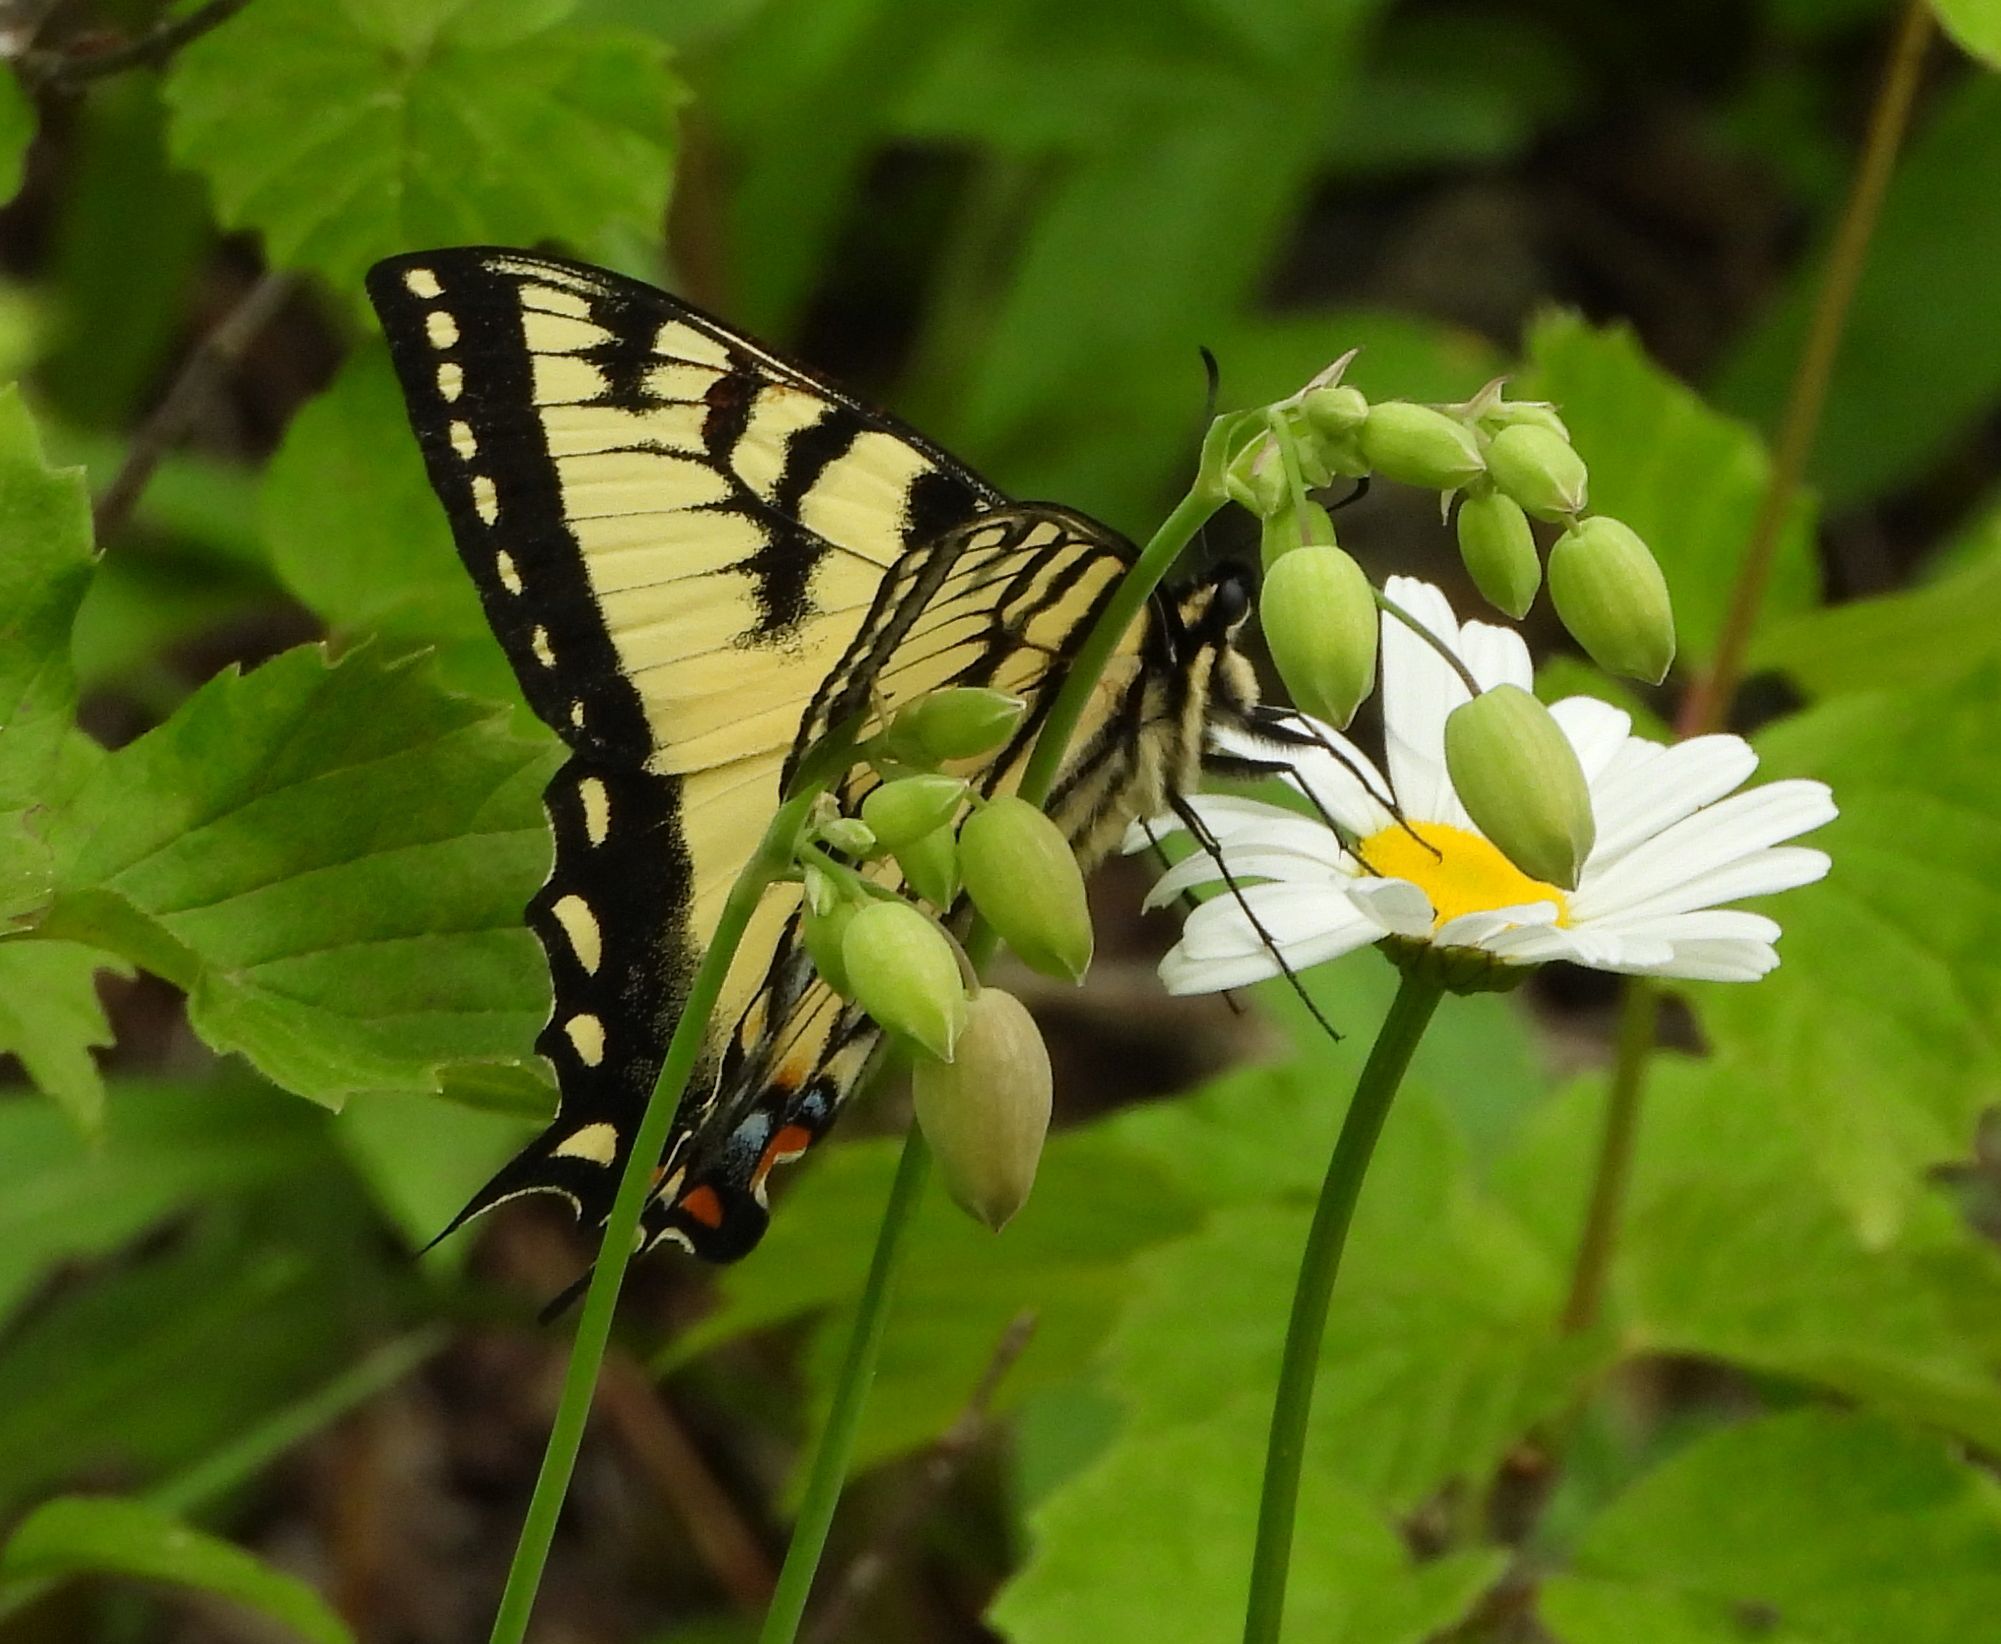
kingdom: Animalia
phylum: Arthropoda
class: Insecta
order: Lepidoptera
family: Papilionidae
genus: Papilio
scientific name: Papilio canadensis
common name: Canadian tiger swallowtail
